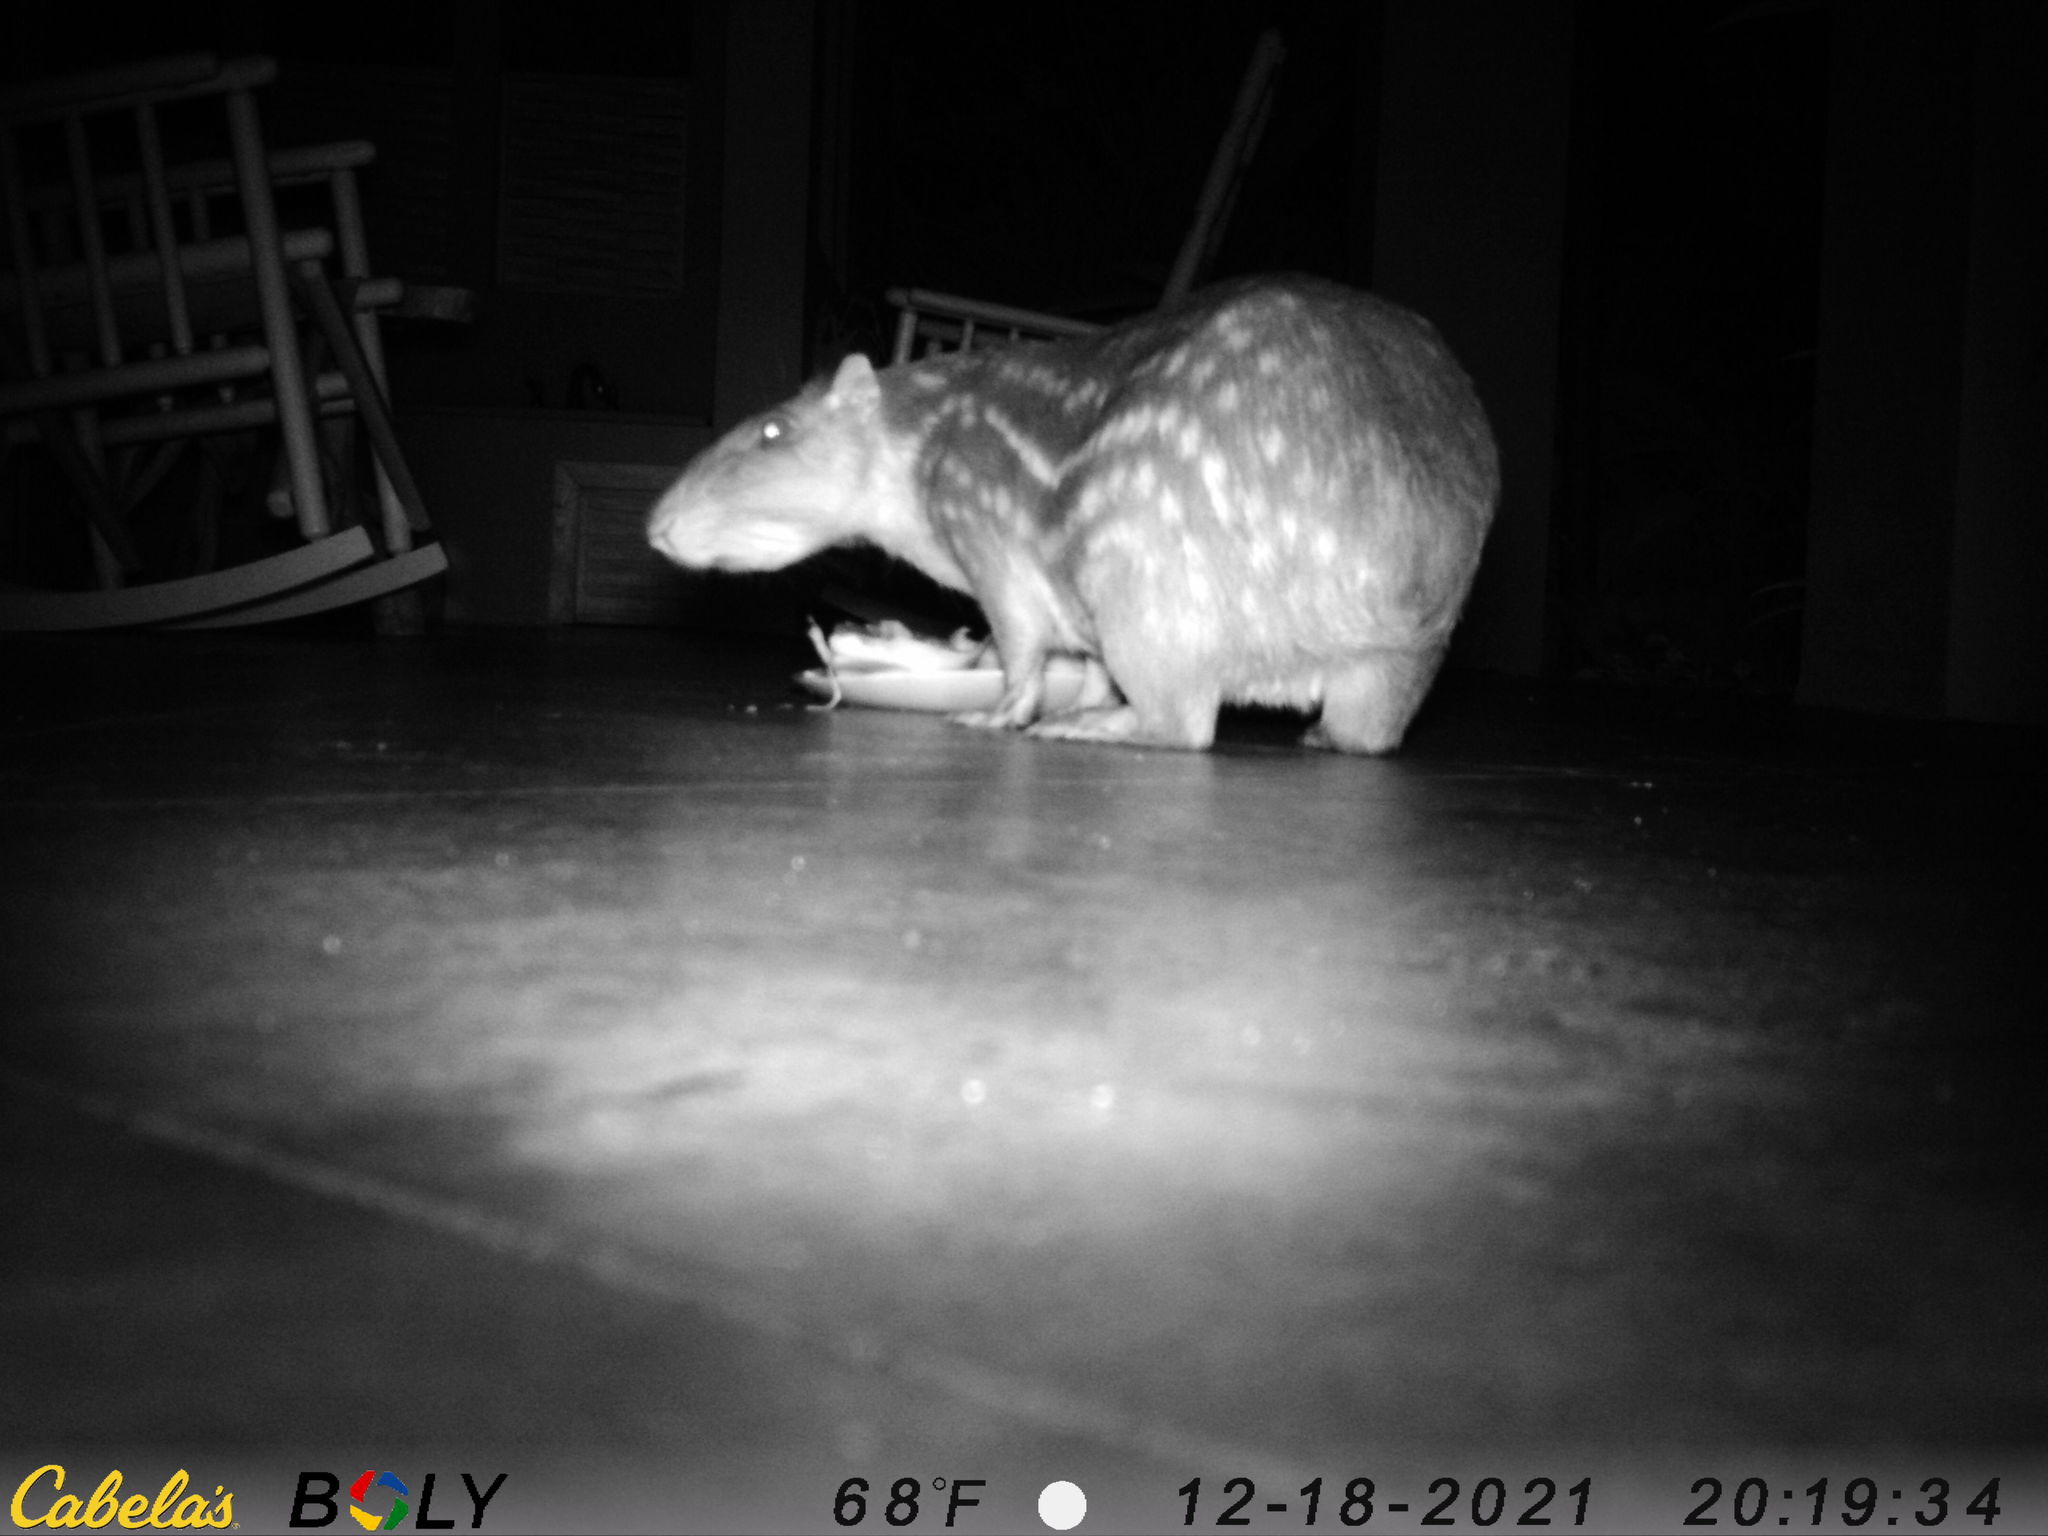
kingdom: Animalia
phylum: Chordata
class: Mammalia
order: Rodentia
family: Cuniculidae
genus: Cuniculus
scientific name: Cuniculus paca
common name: Lowland paca
